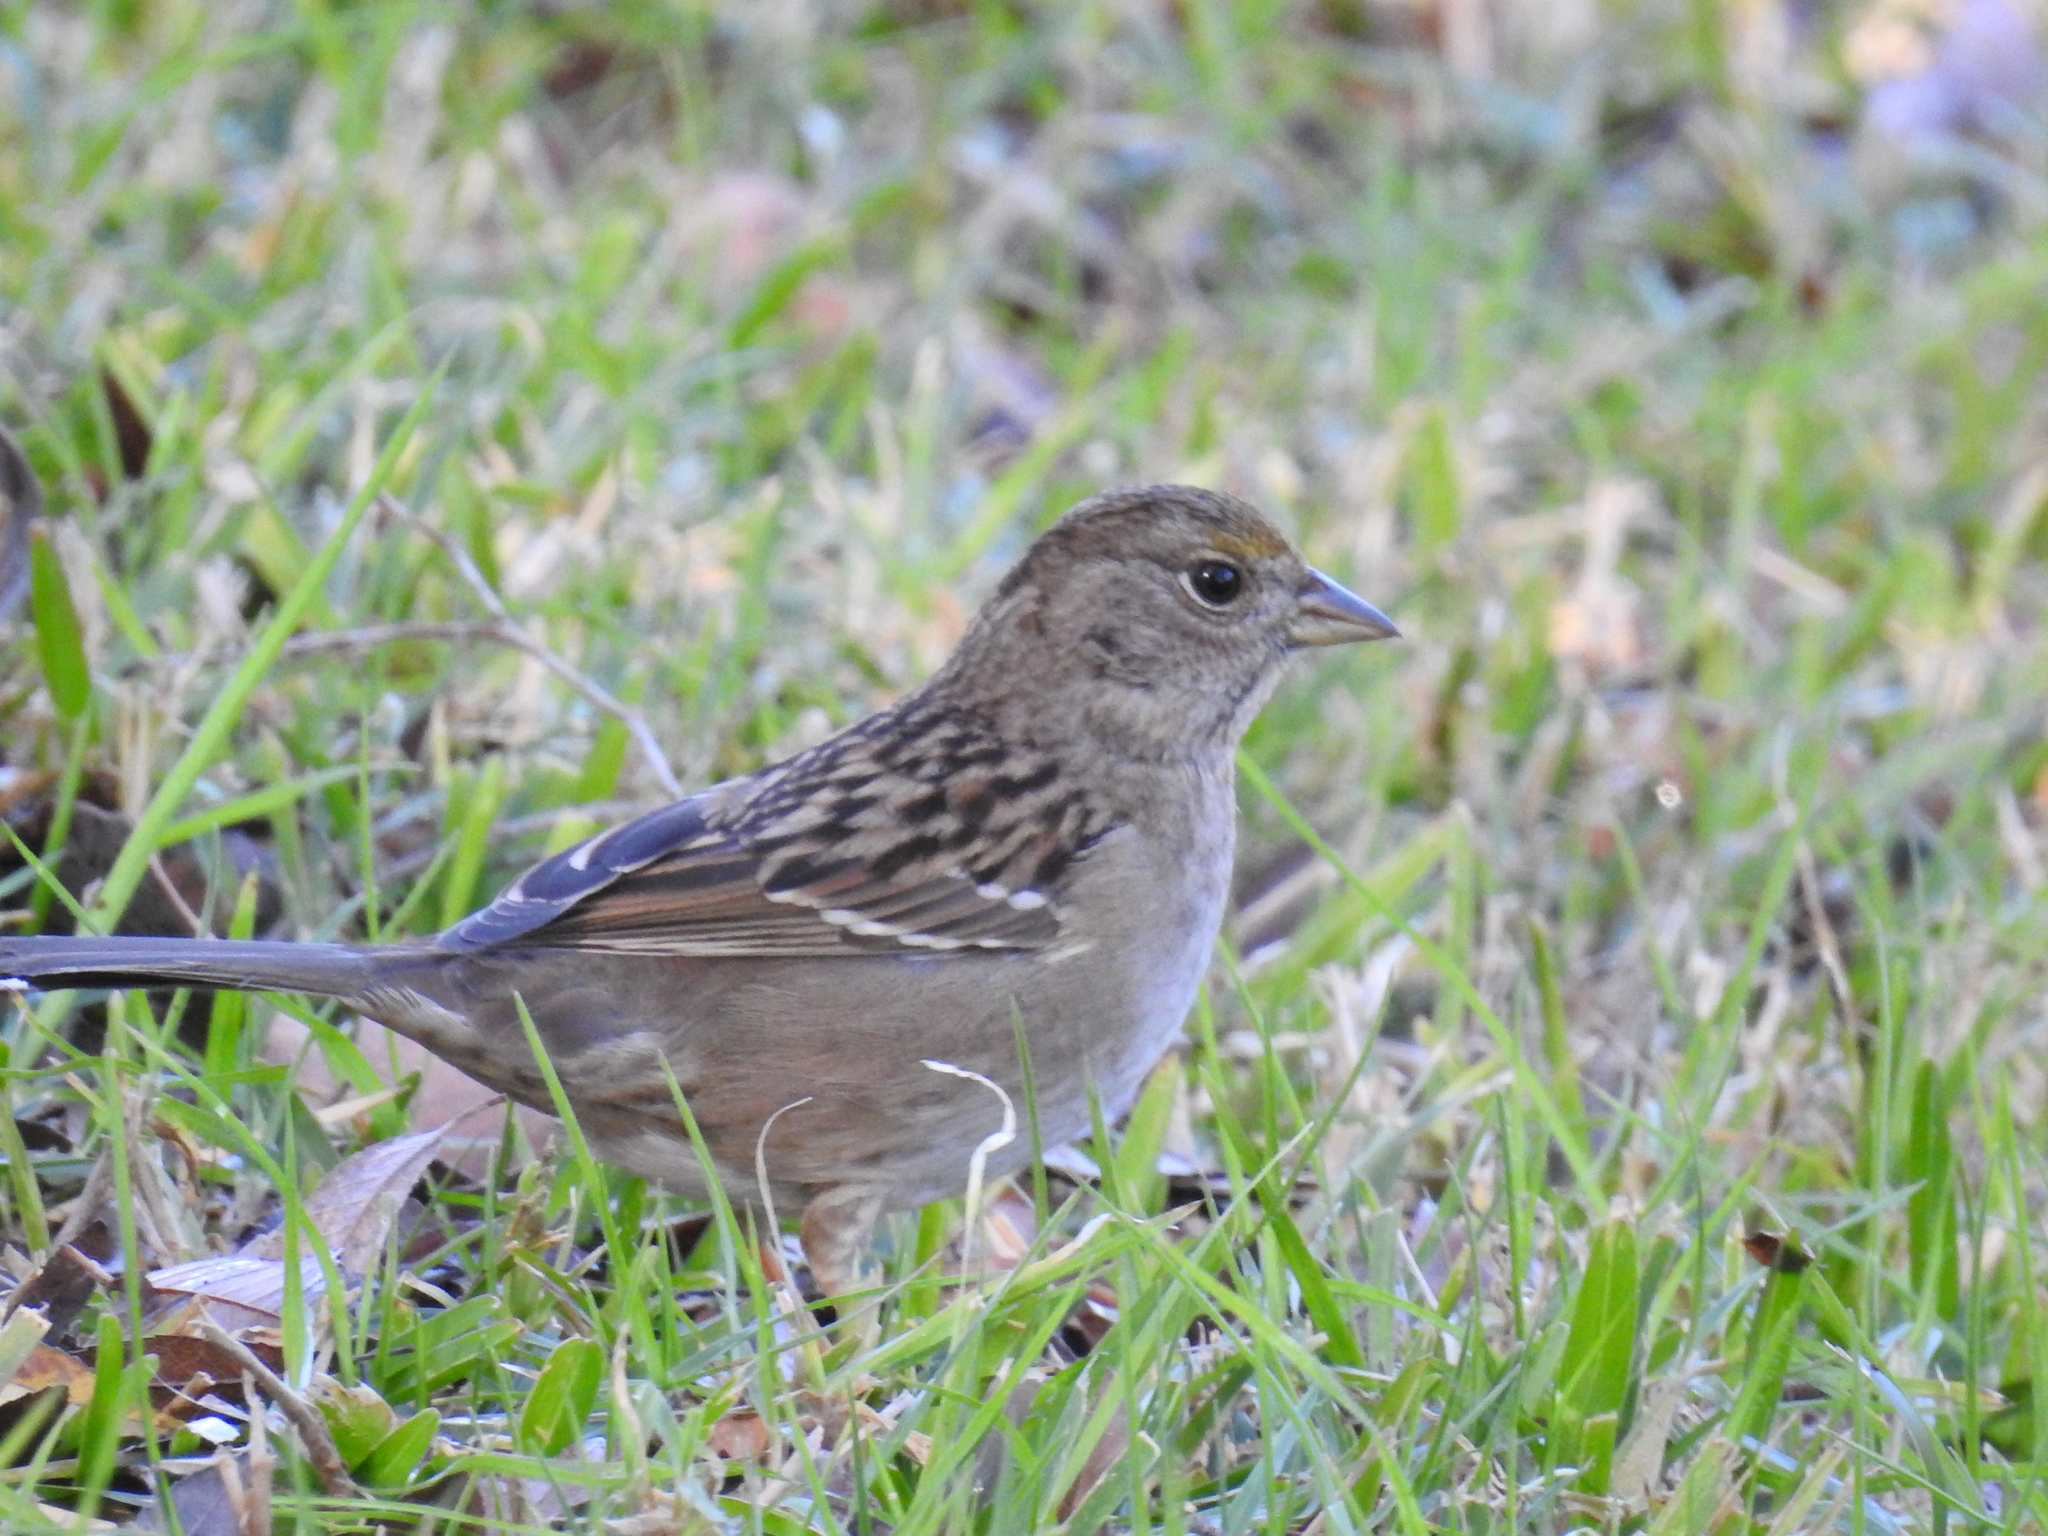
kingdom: Animalia
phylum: Chordata
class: Aves
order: Passeriformes
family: Passerellidae
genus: Zonotrichia
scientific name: Zonotrichia atricapilla
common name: Golden-crowned sparrow
